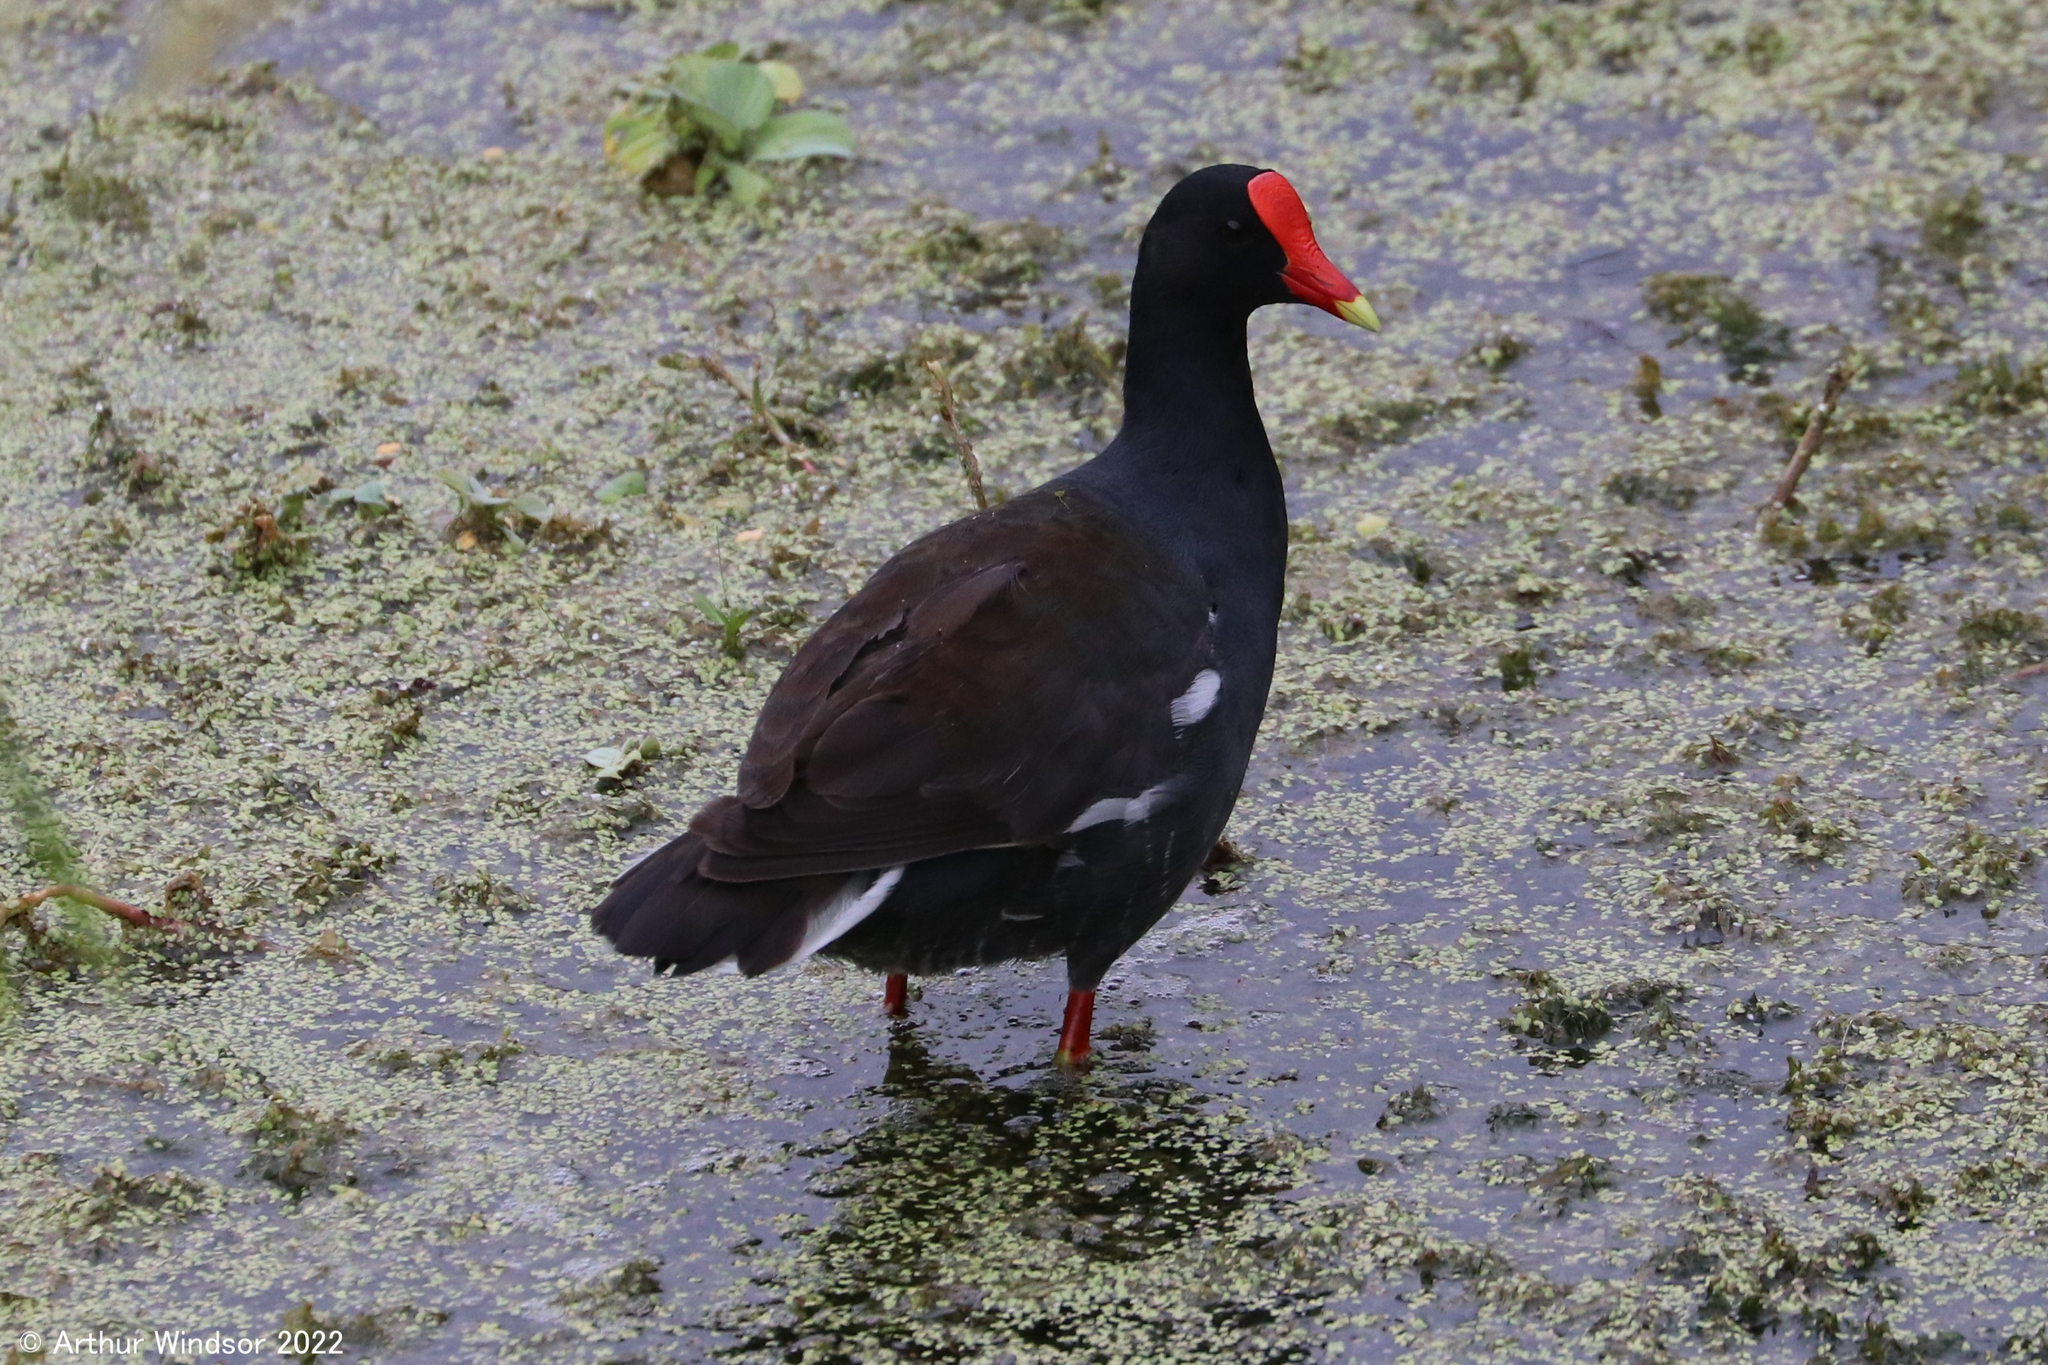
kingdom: Animalia
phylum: Chordata
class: Aves
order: Gruiformes
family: Rallidae
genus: Gallinula
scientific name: Gallinula chloropus
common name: Common moorhen
